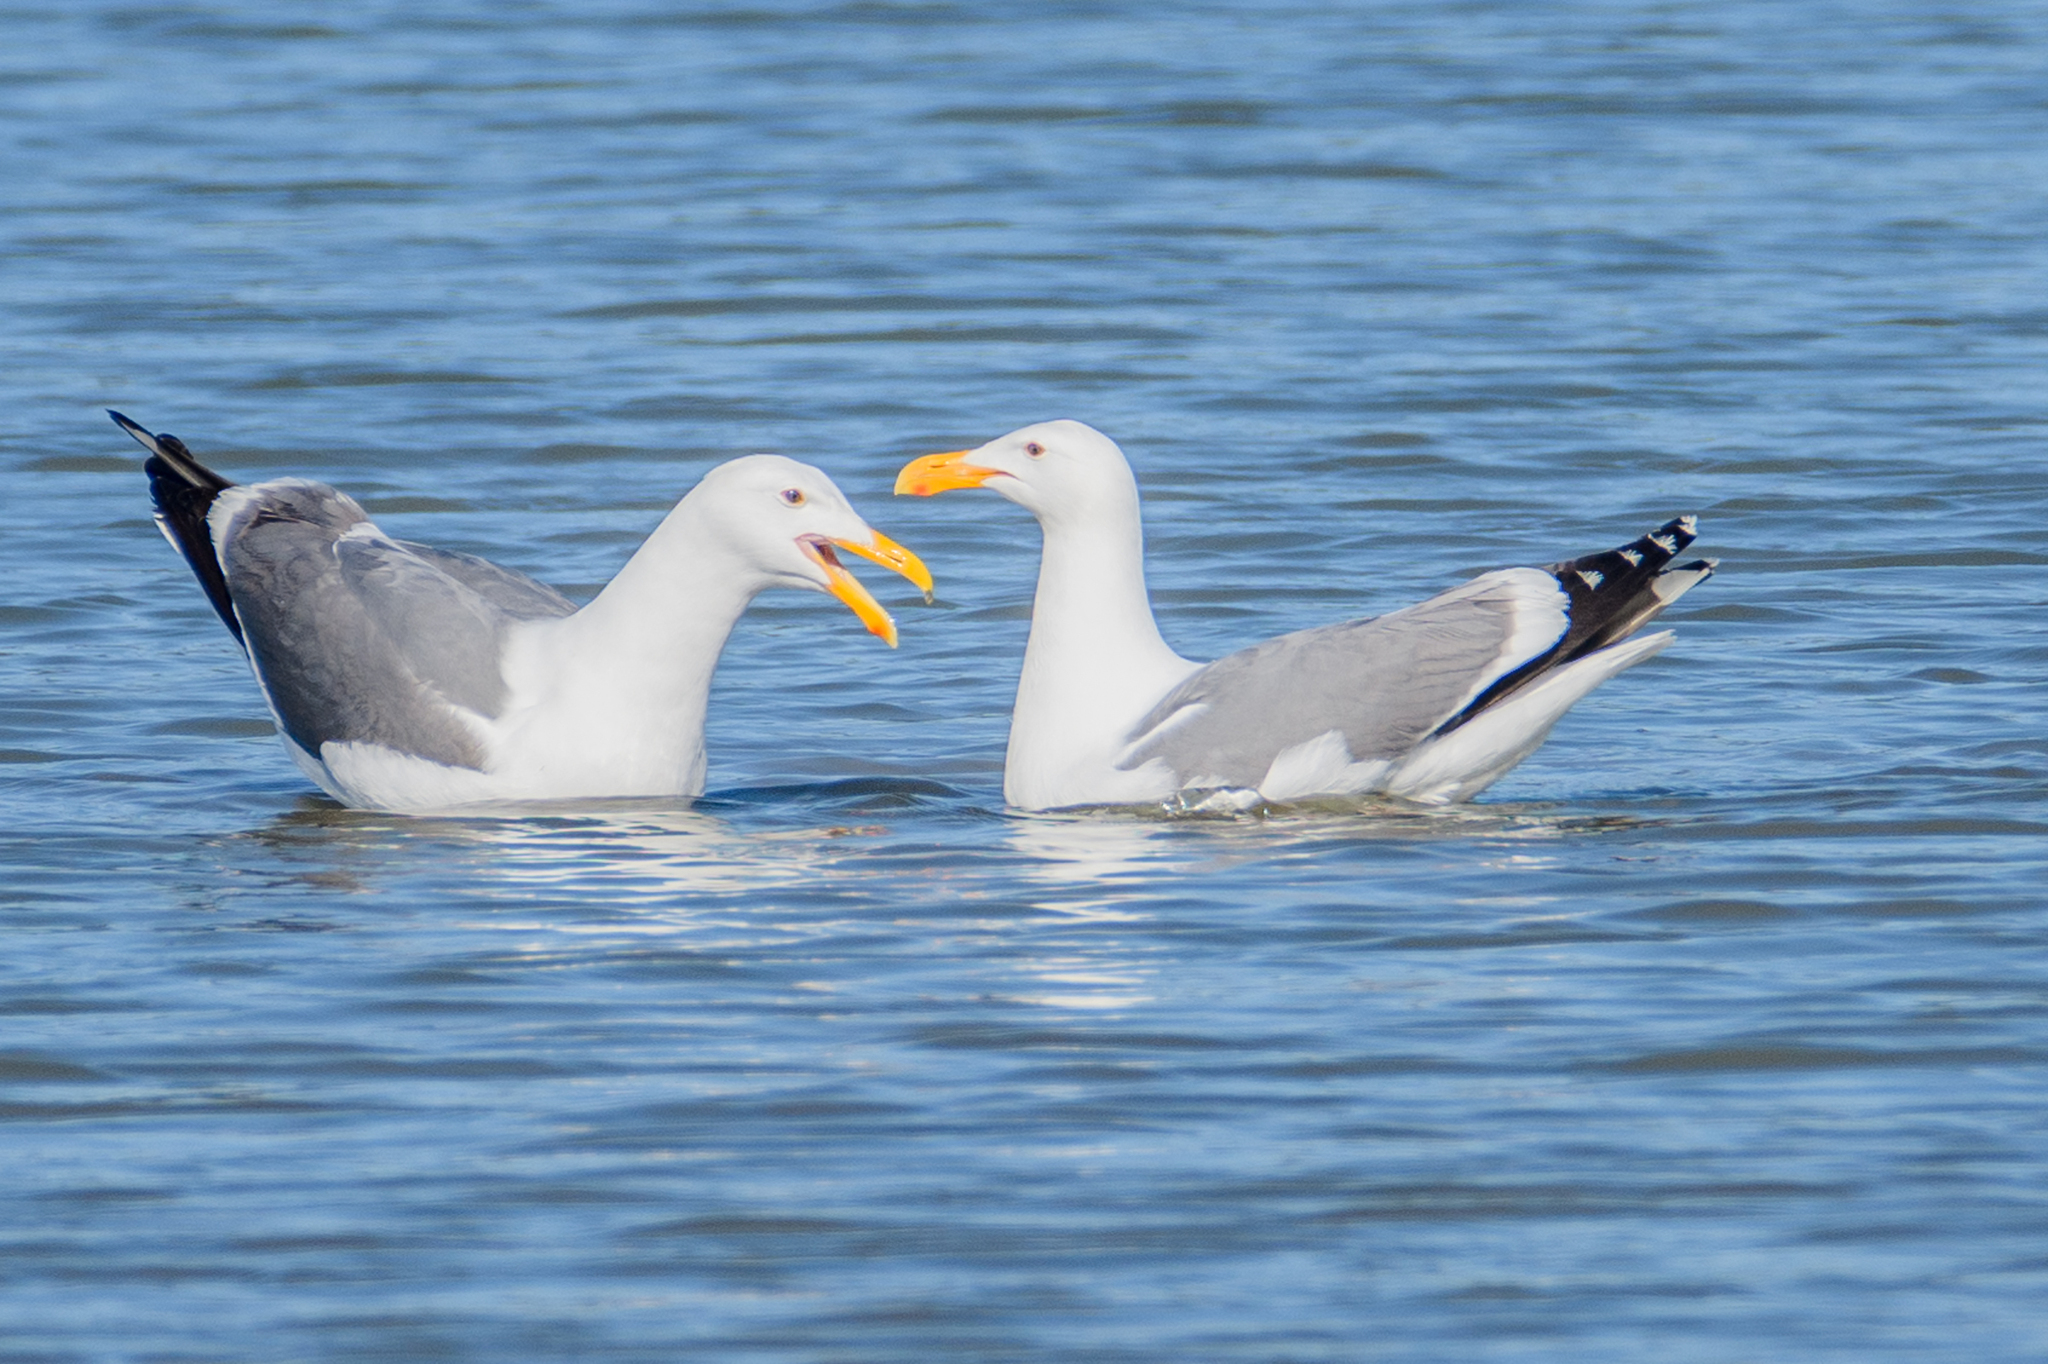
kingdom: Animalia
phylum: Chordata
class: Aves
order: Charadriiformes
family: Laridae
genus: Larus
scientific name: Larus occidentalis
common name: Western gull
